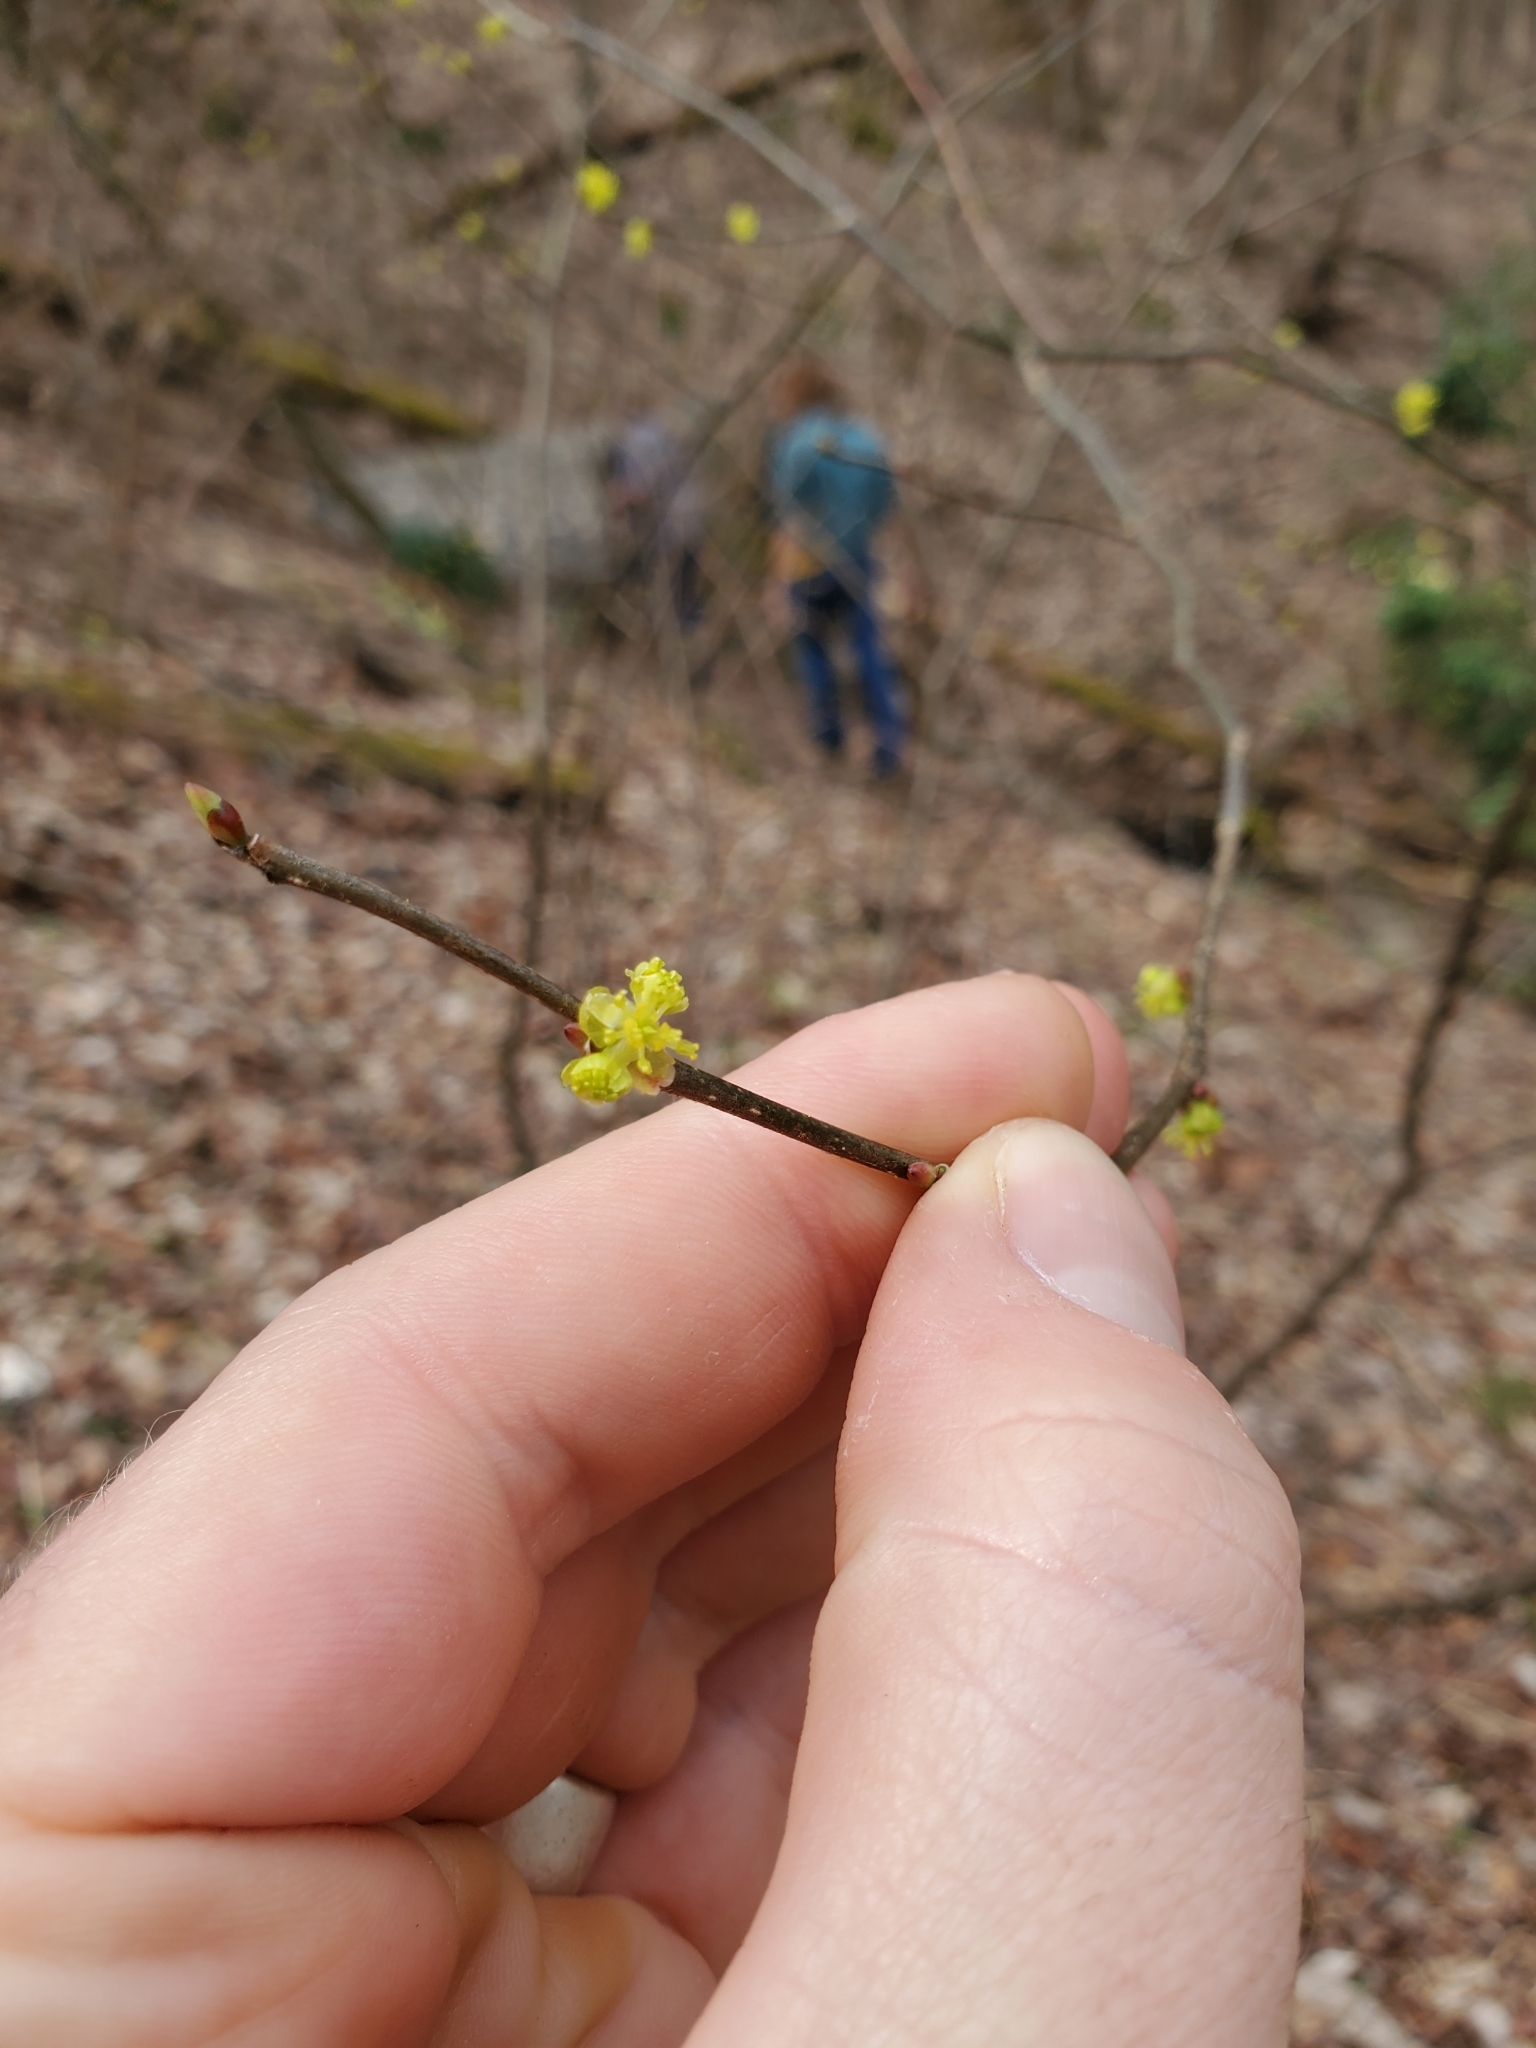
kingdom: Plantae
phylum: Tracheophyta
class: Magnoliopsida
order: Laurales
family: Lauraceae
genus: Lindera
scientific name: Lindera benzoin
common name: Spicebush
